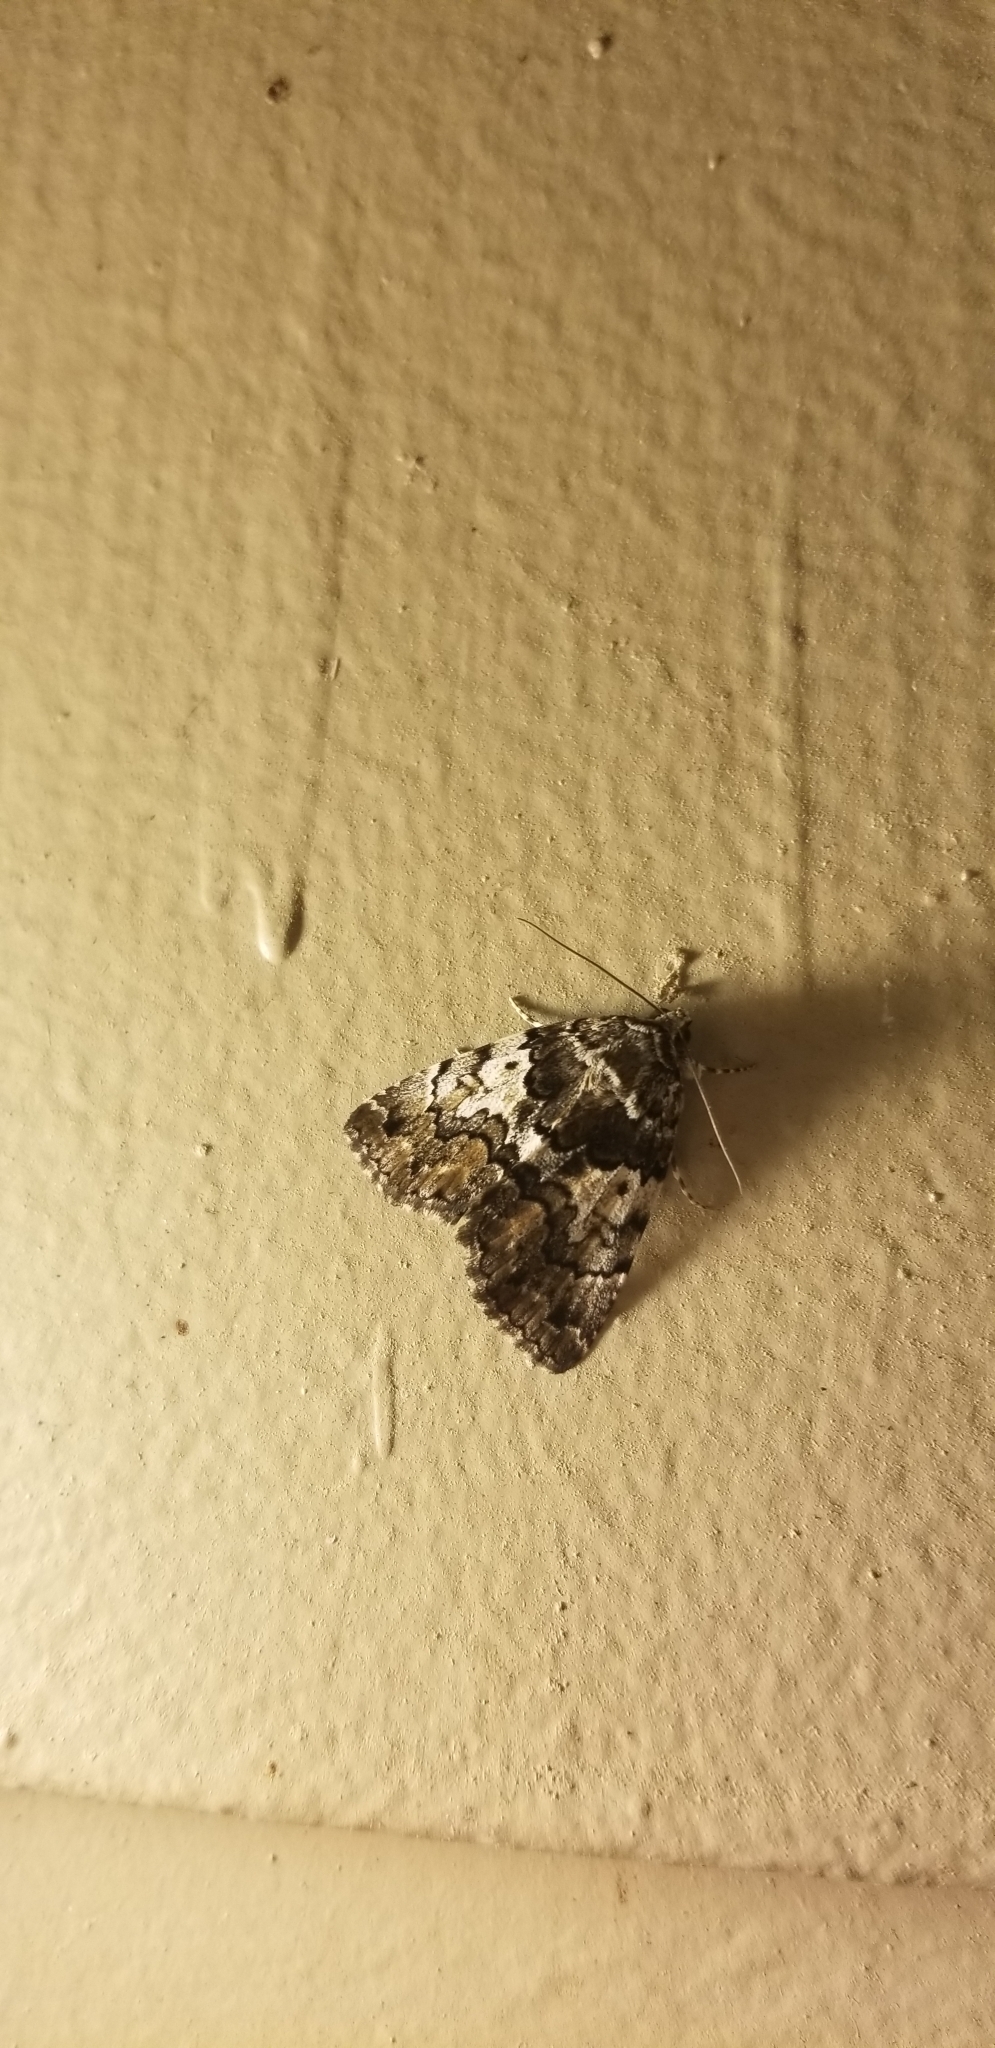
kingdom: Animalia
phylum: Arthropoda
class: Insecta
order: Lepidoptera
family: Erebidae
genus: Allotria
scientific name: Allotria elonympha
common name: False underwing
